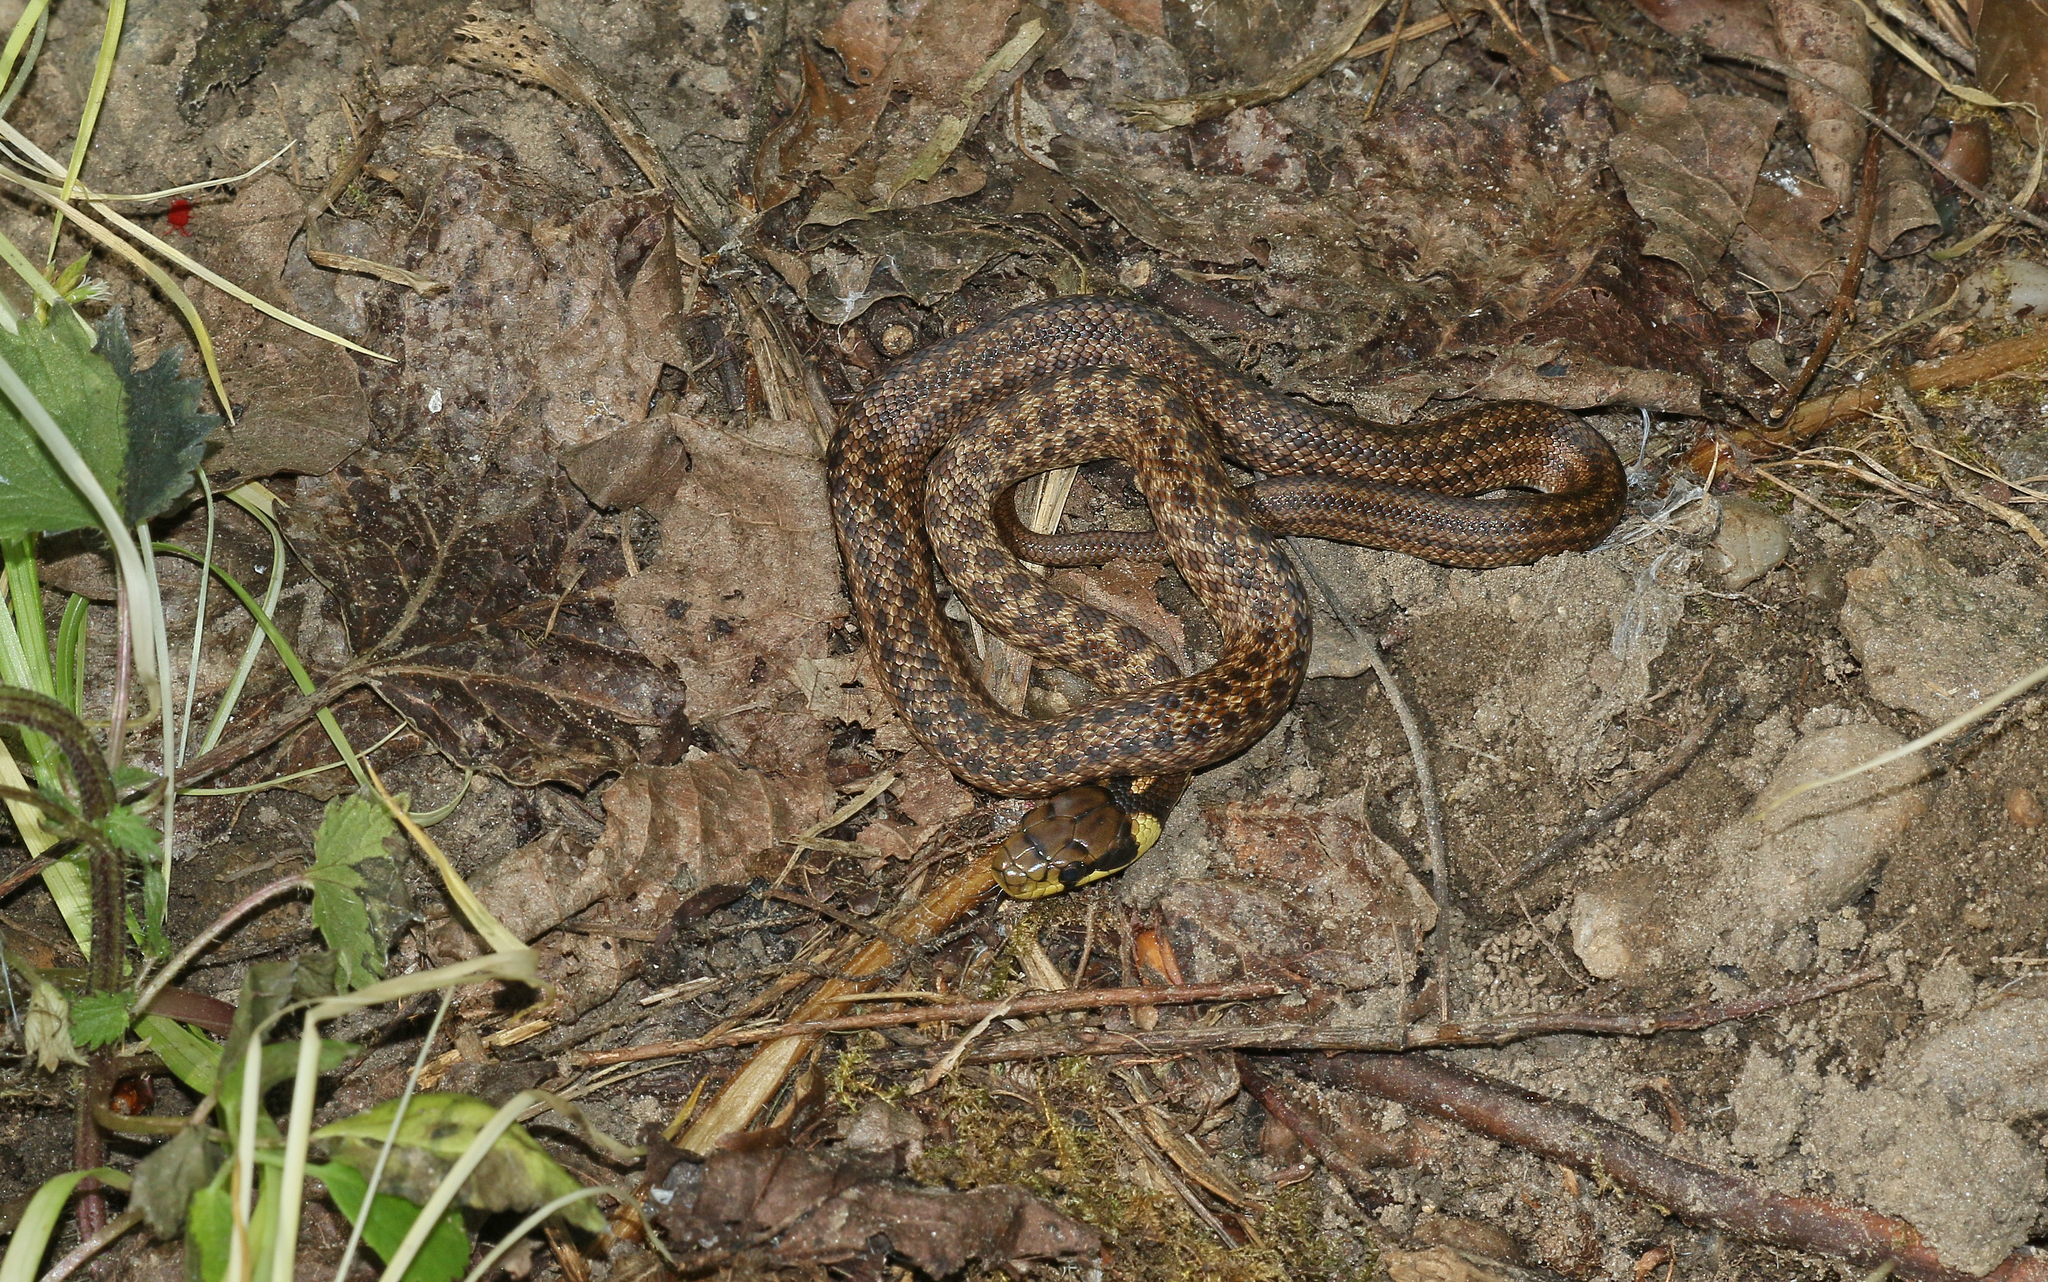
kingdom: Animalia
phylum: Chordata
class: Squamata
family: Colubridae
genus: Zamenis
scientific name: Zamenis longissimus
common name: Aesculapean snake
